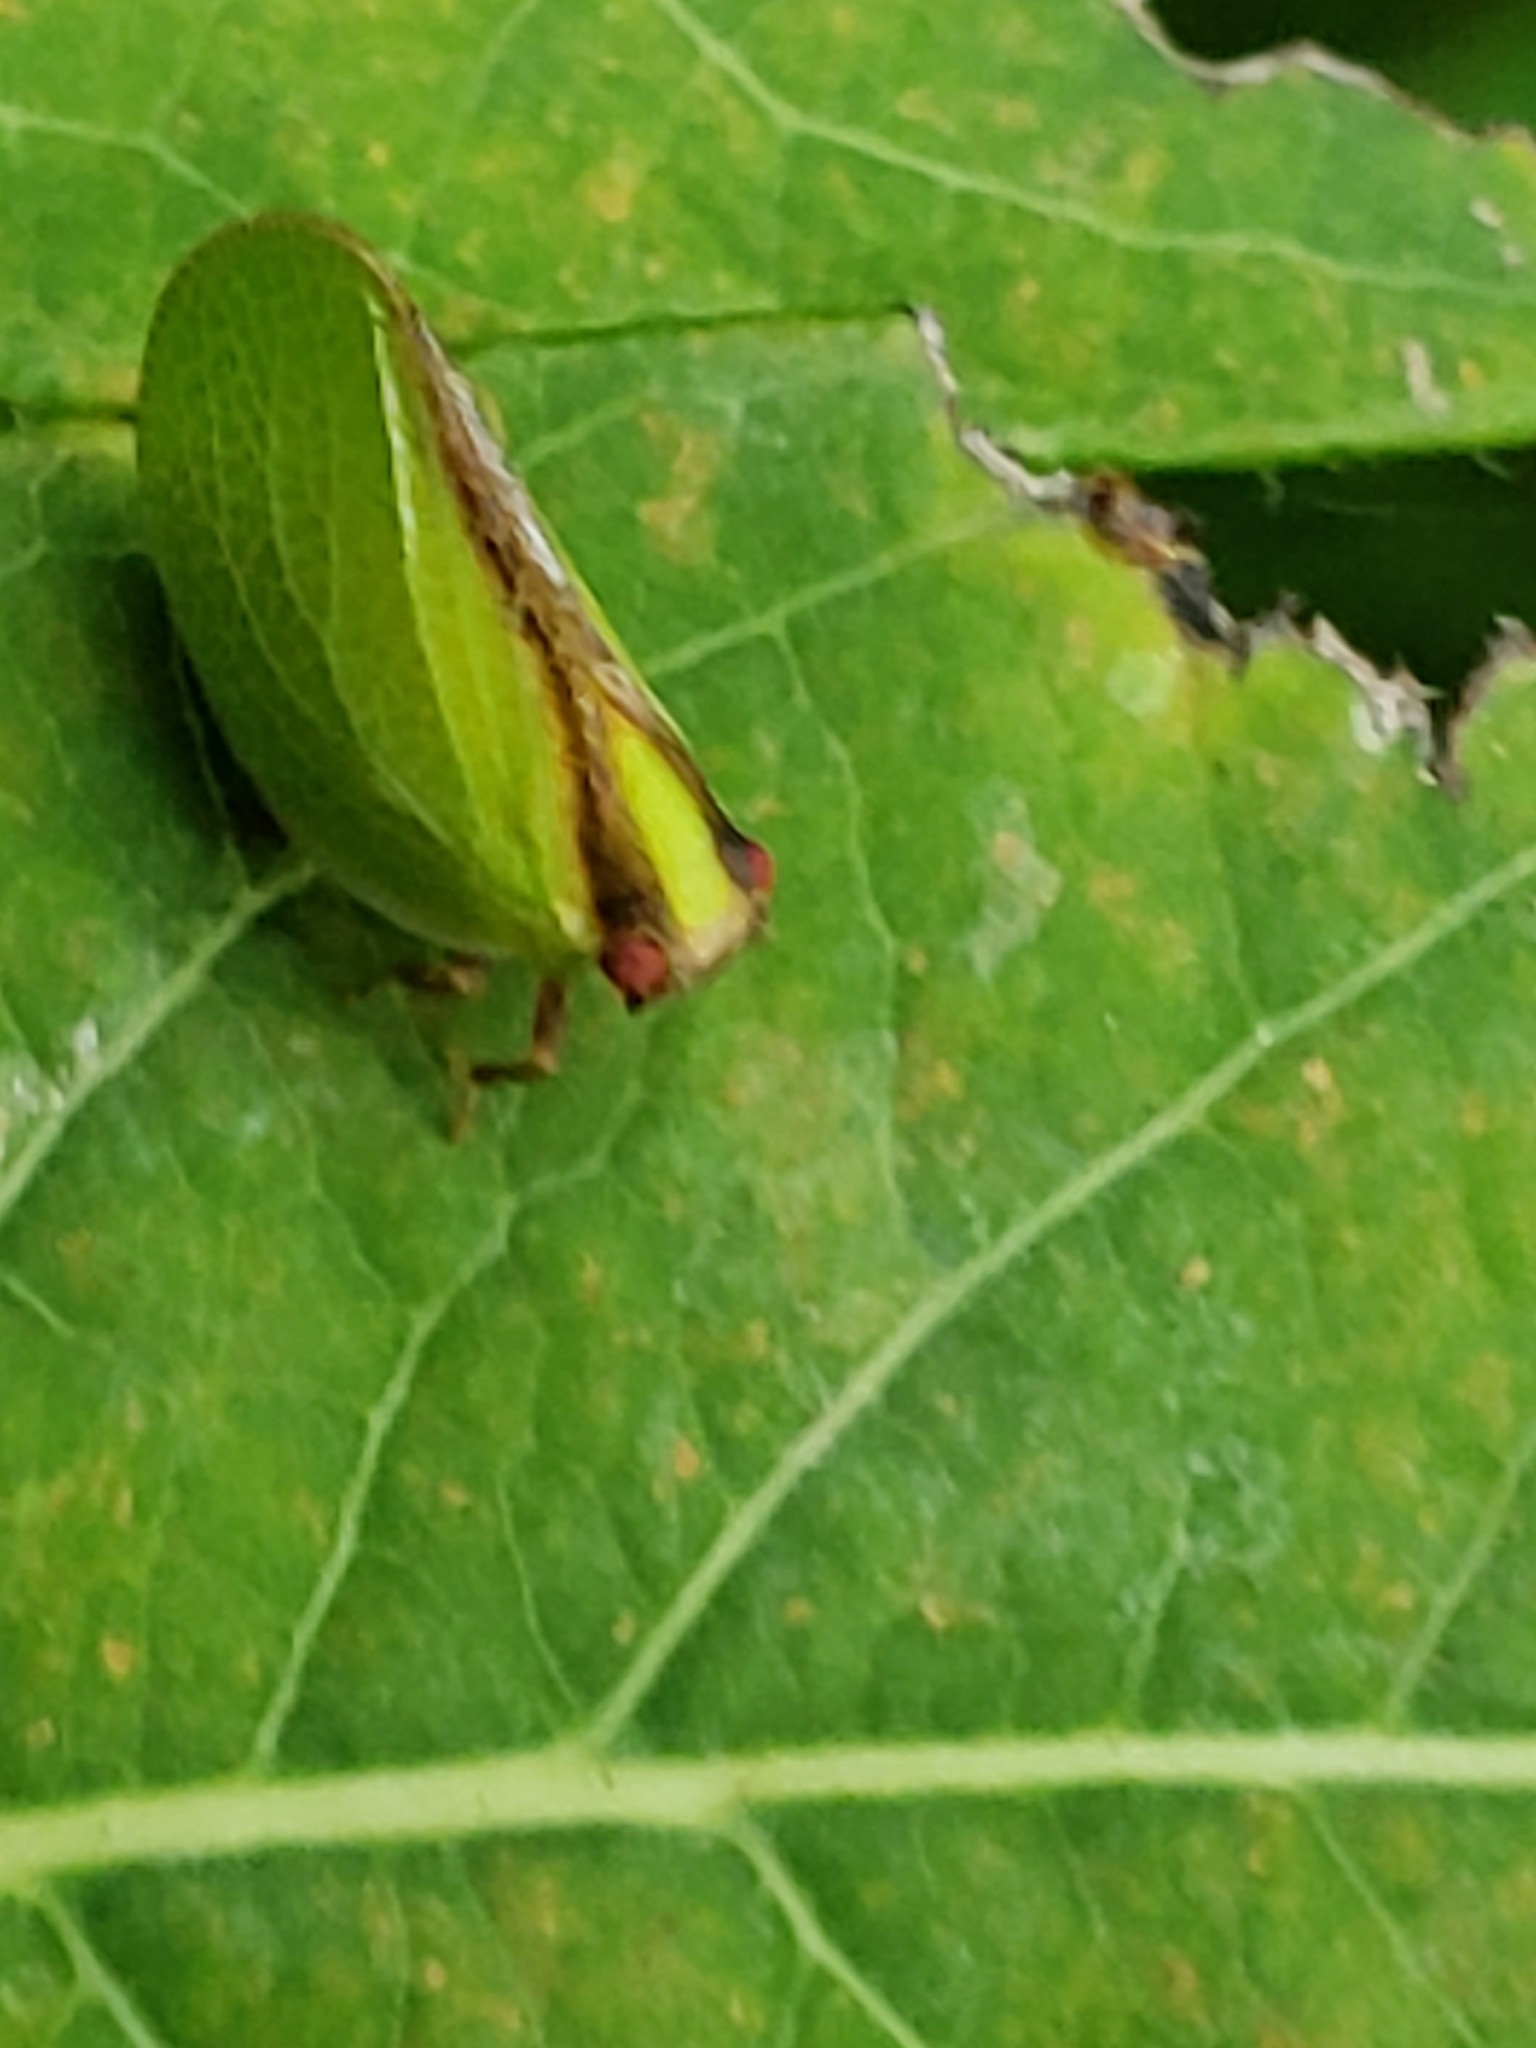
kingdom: Animalia
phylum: Arthropoda
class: Insecta
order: Hemiptera
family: Acanaloniidae
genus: Acanalonia
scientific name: Acanalonia bivittata
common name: Two-striped planthopper
